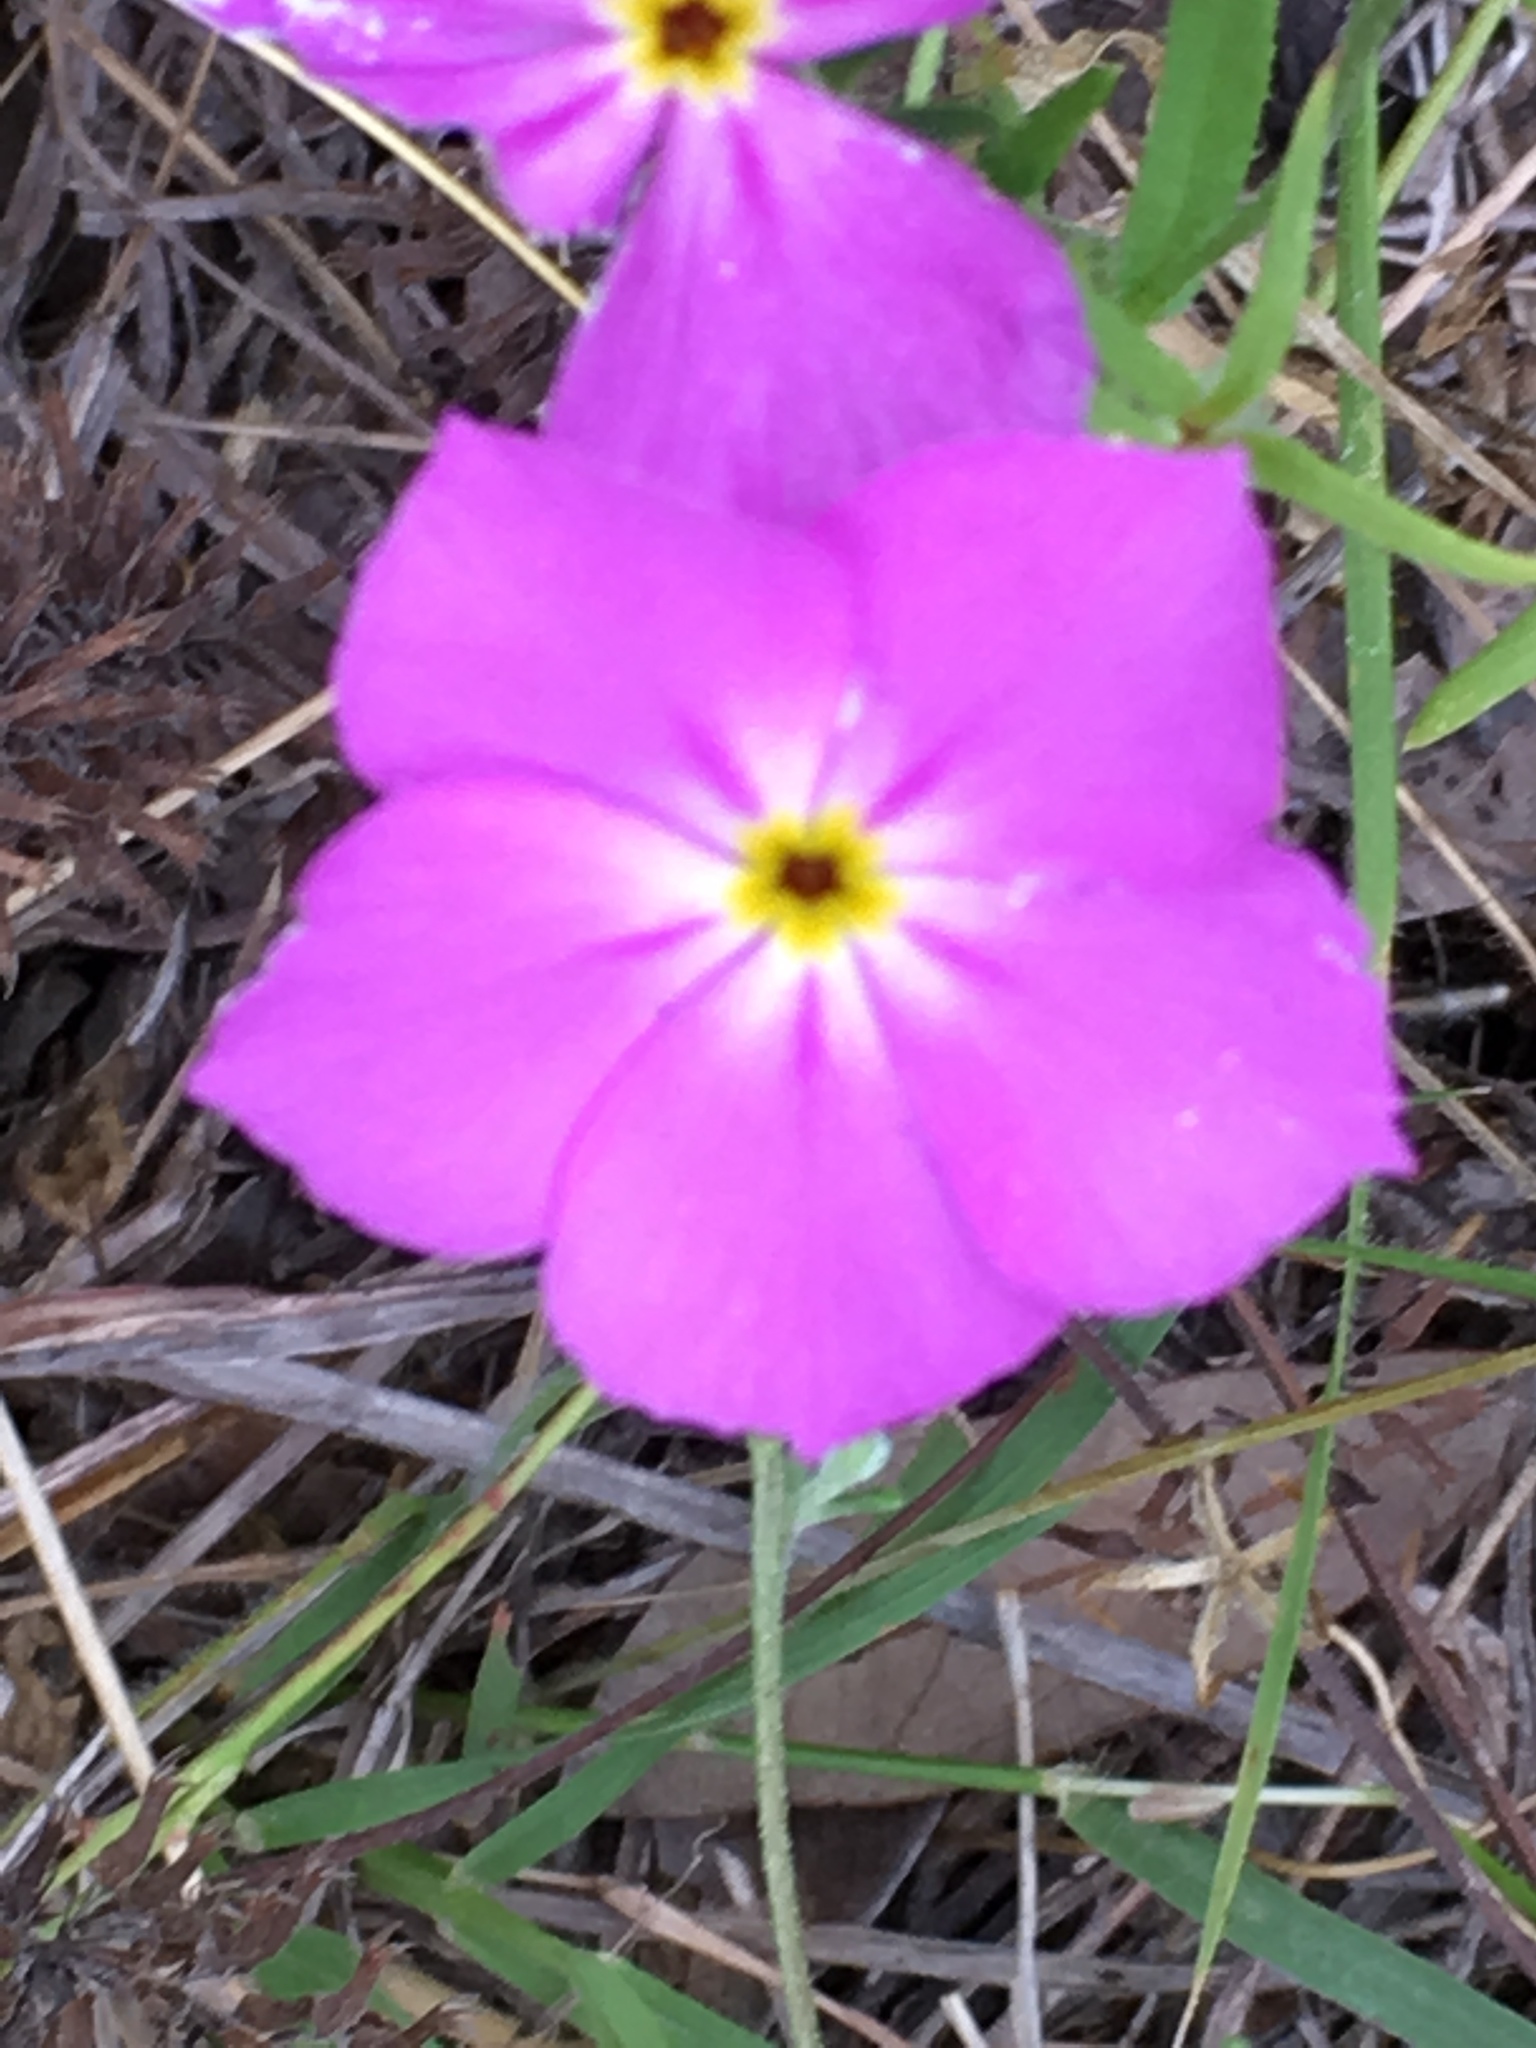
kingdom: Plantae
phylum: Tracheophyta
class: Magnoliopsida
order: Ericales
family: Polemoniaceae
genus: Phlox
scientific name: Phlox roemeriana
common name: Roemer's phlox
